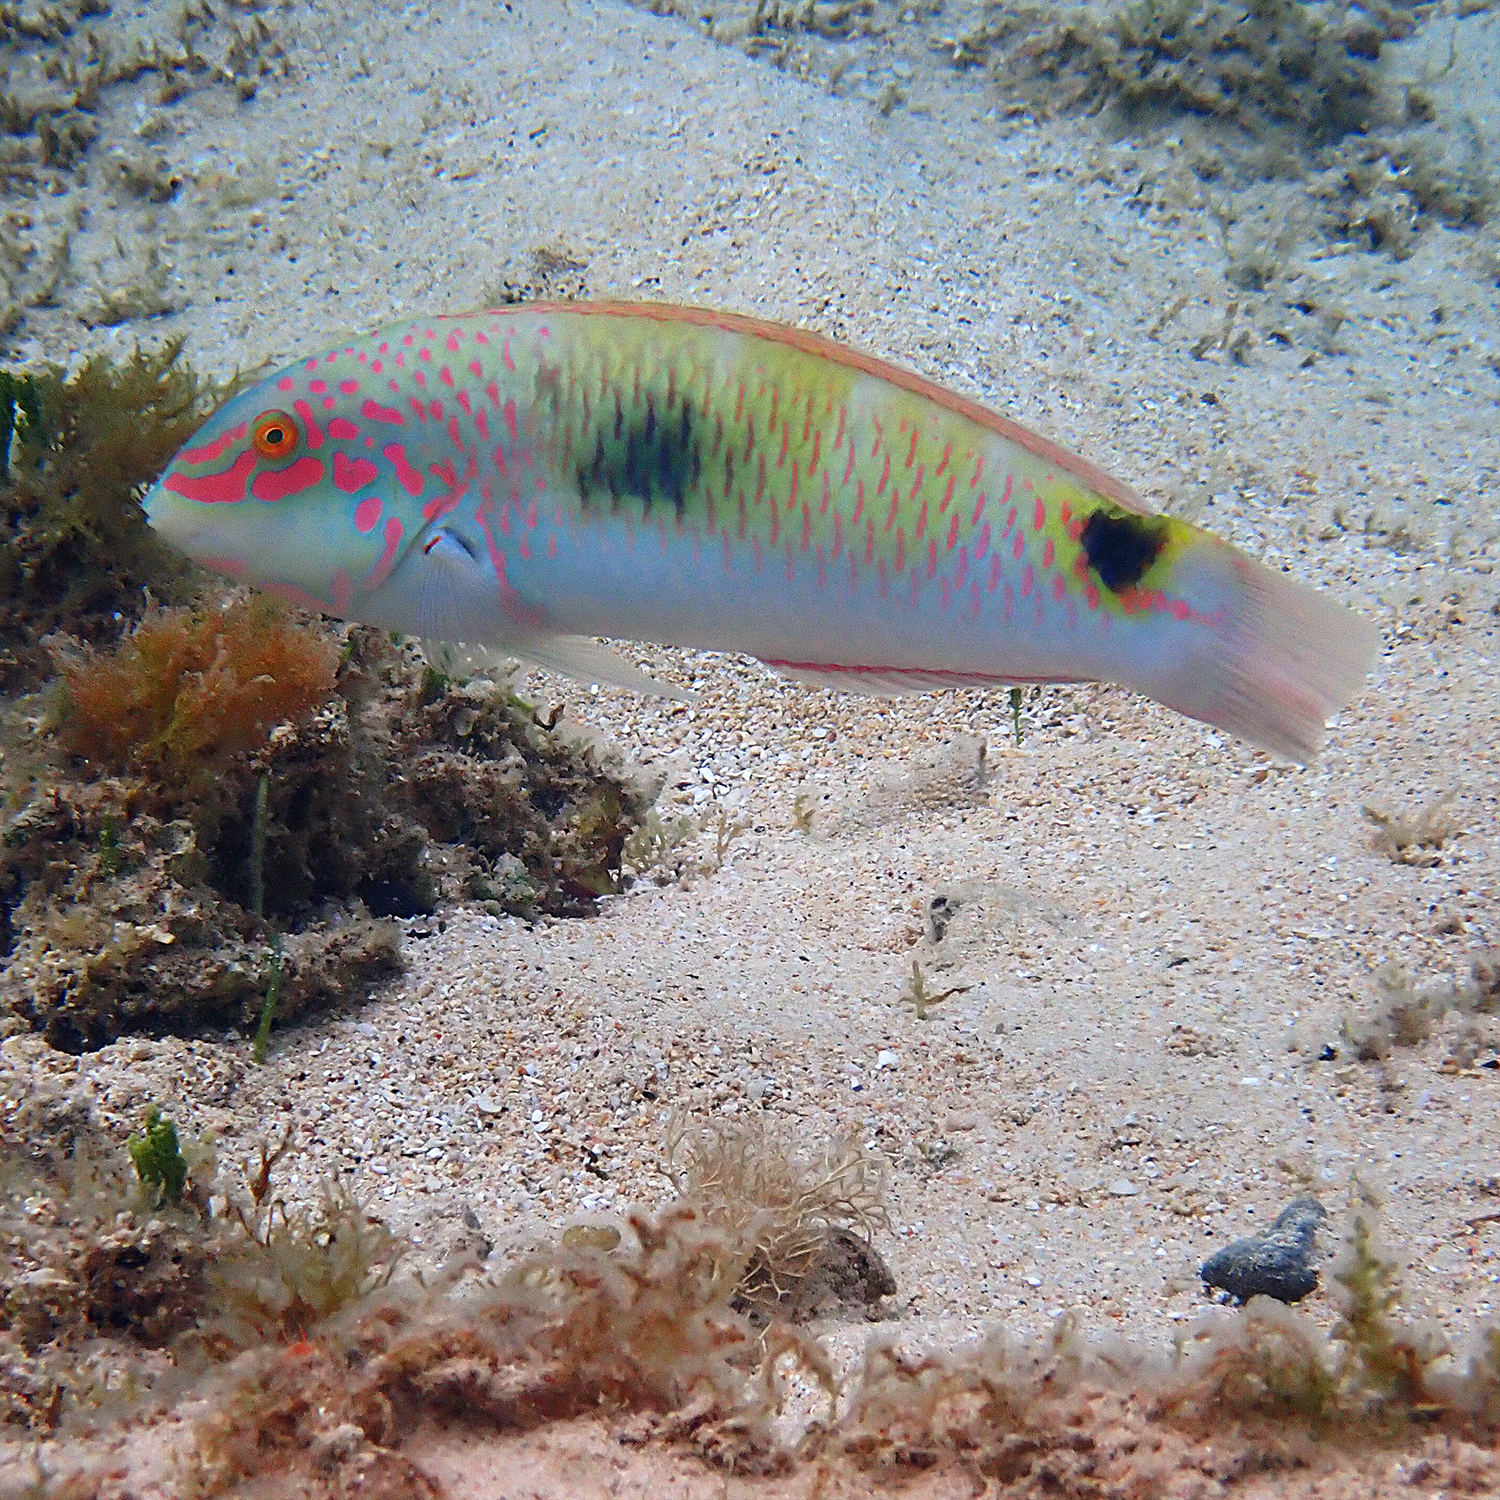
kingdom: Animalia
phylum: Chordata
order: Perciformes
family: Labridae
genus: Halichoeres
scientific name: Halichoeres trimaculatus
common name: Three-spot wrasse
